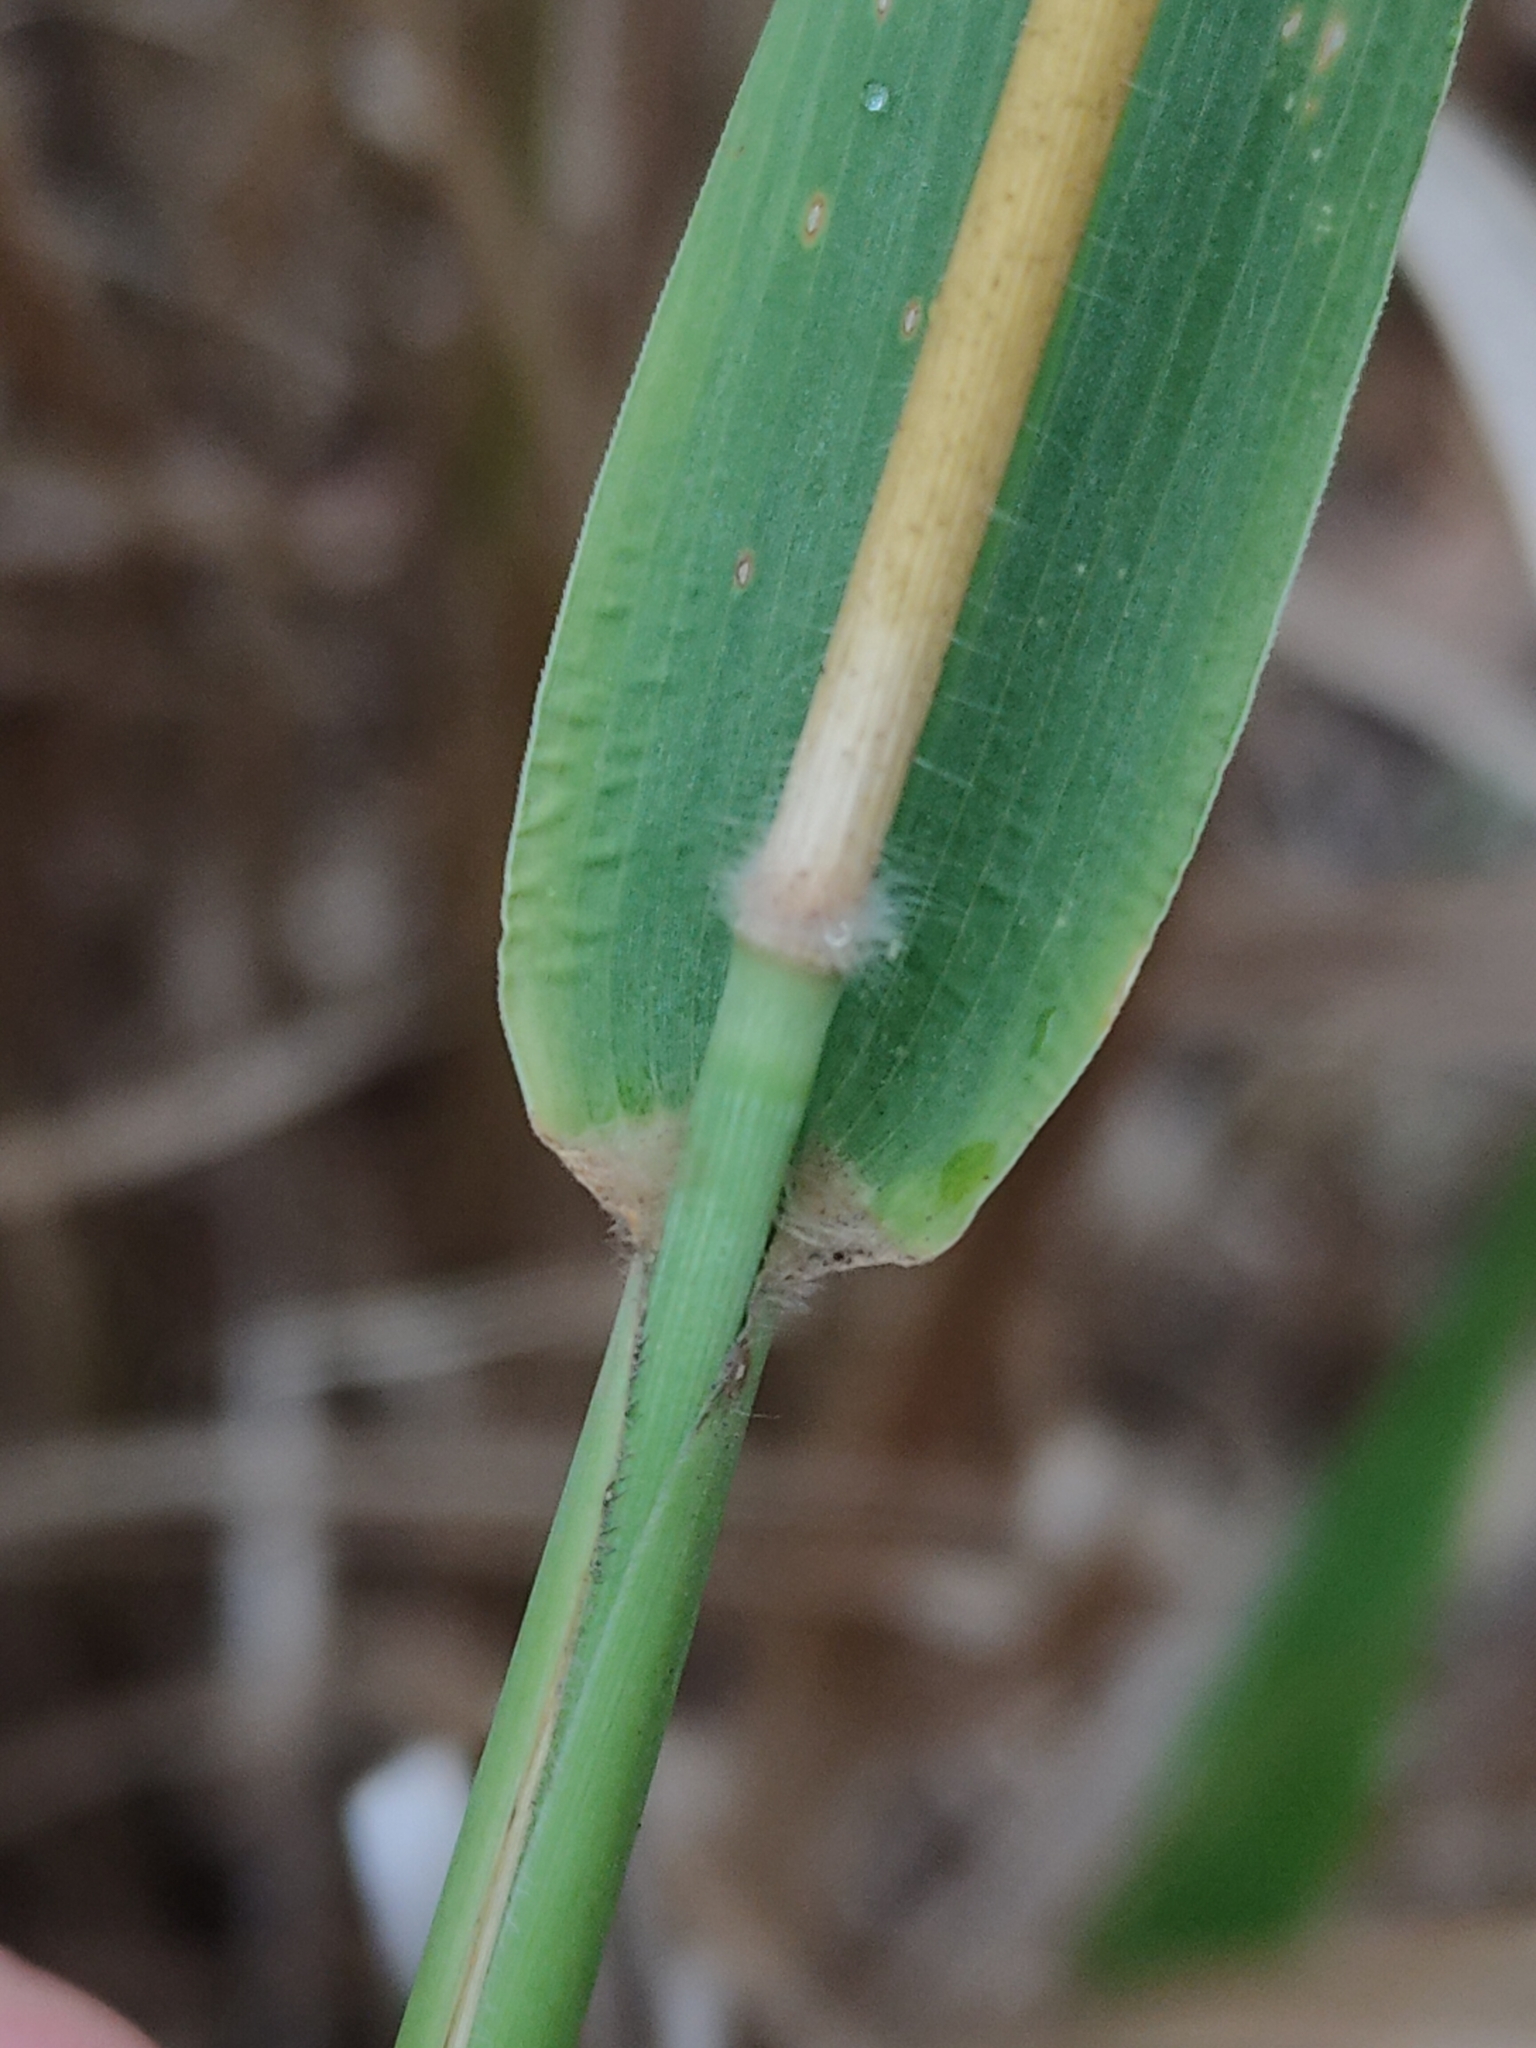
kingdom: Plantae
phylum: Tracheophyta
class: Liliopsida
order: Poales
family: Poaceae
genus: Megathyrsus
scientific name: Megathyrsus maximus
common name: Guineagrass
